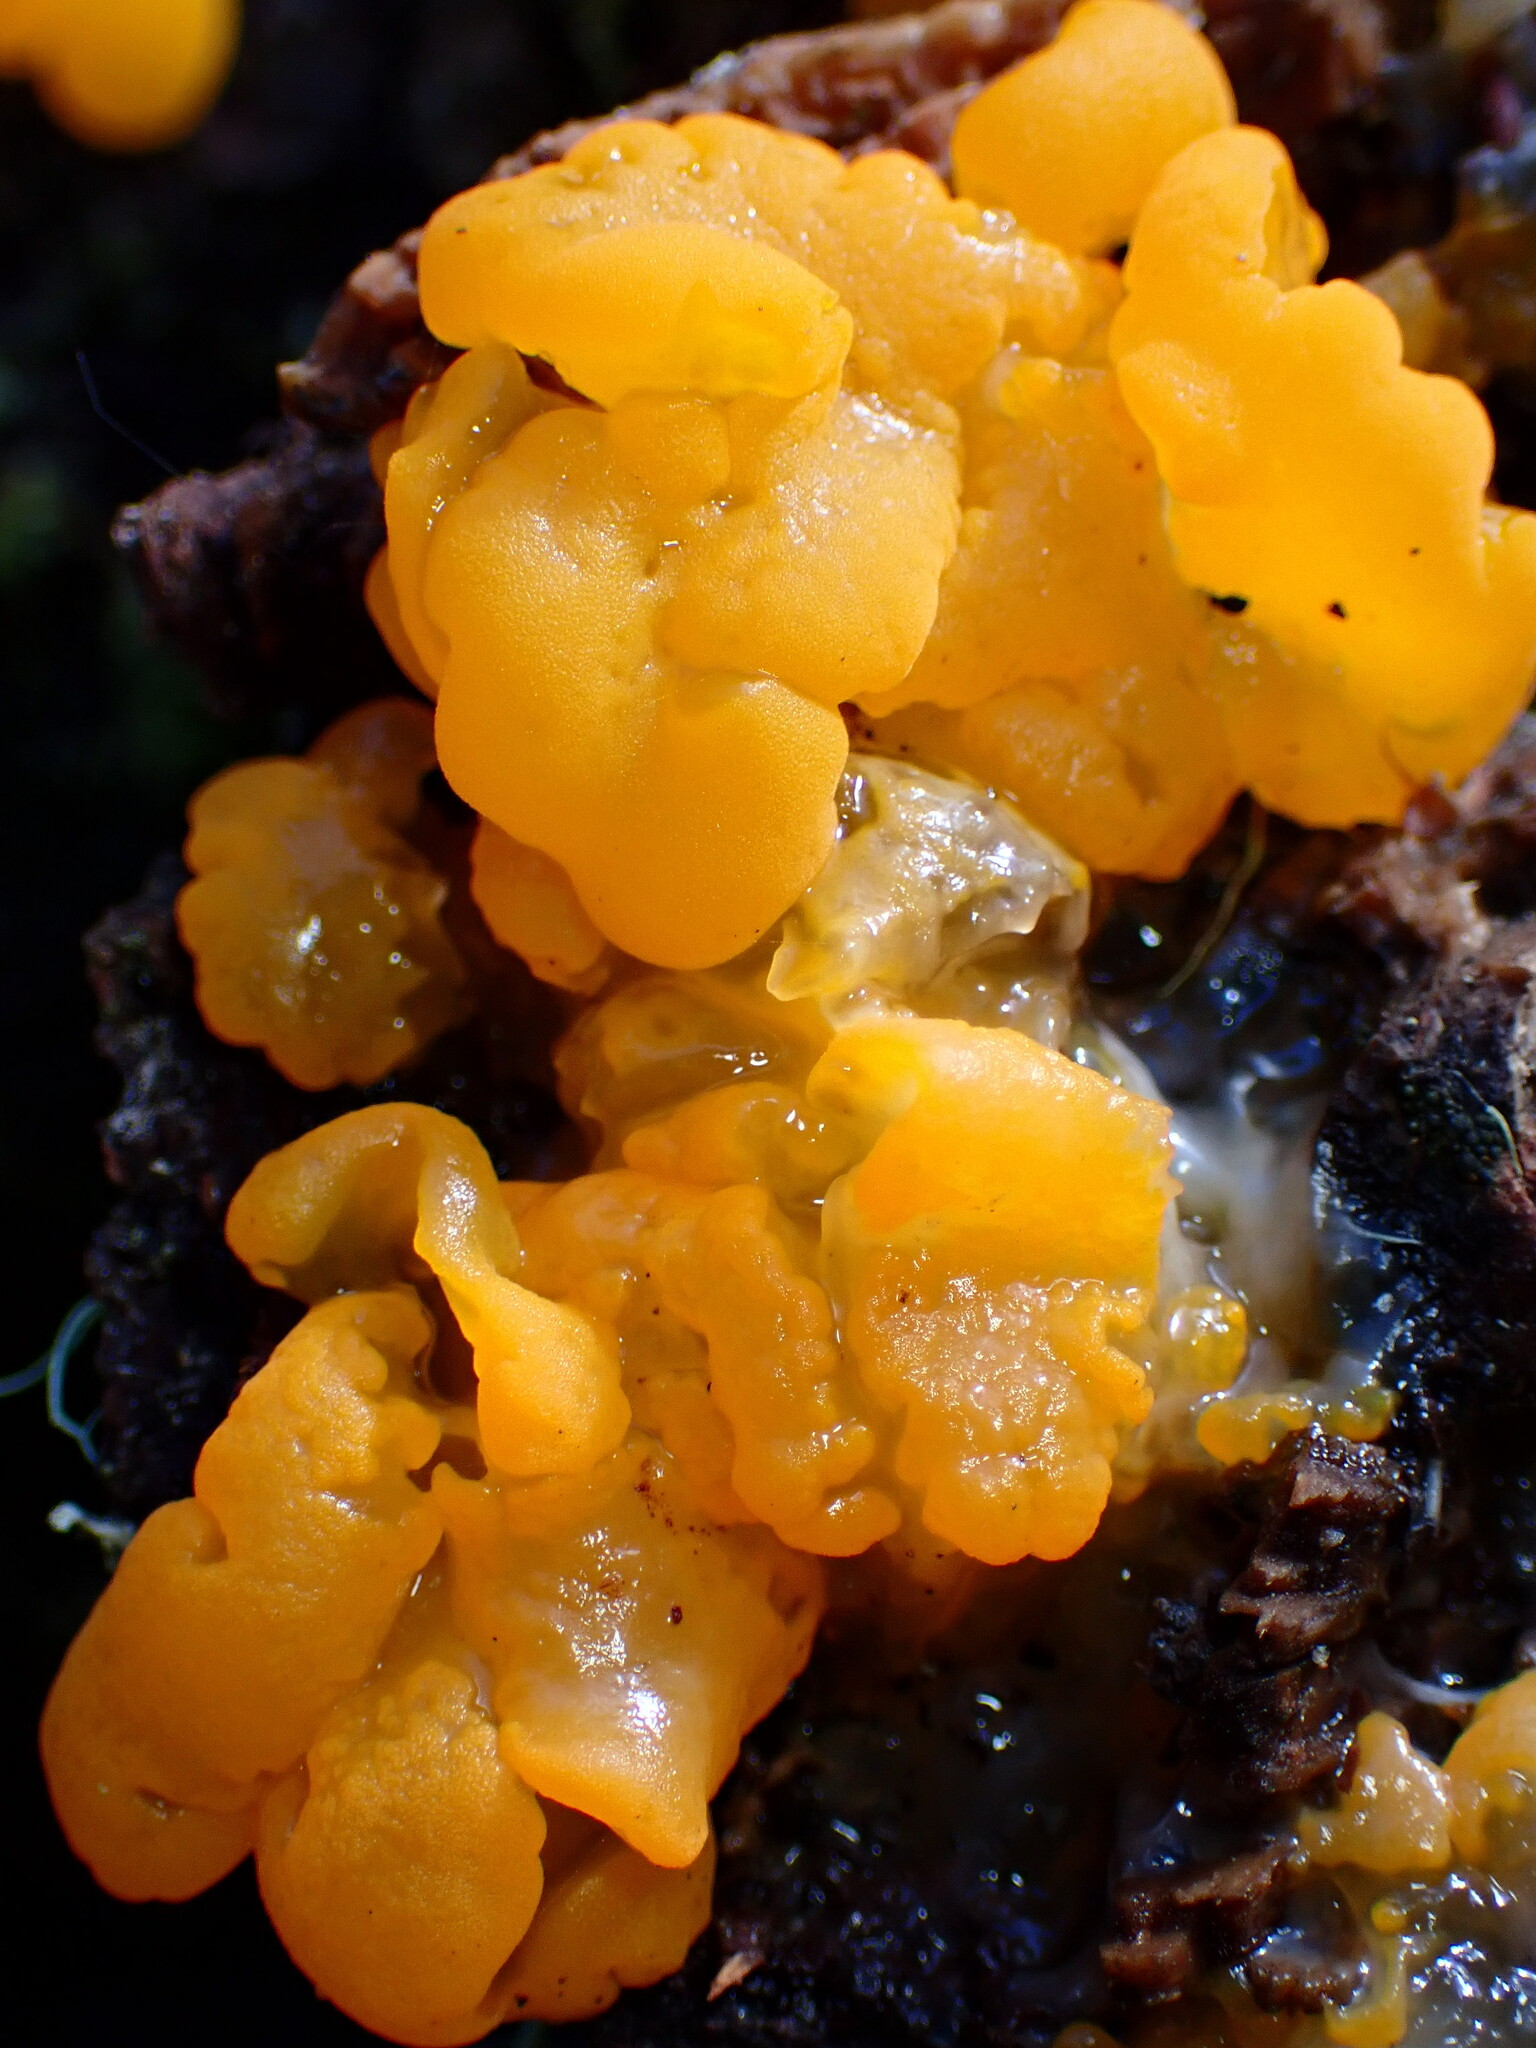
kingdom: Fungi
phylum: Basidiomycota
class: Tremellomycetes
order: Tremellales
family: Naemateliaceae
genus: Naematelia
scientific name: Naematelia aurantia
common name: Golden ear
